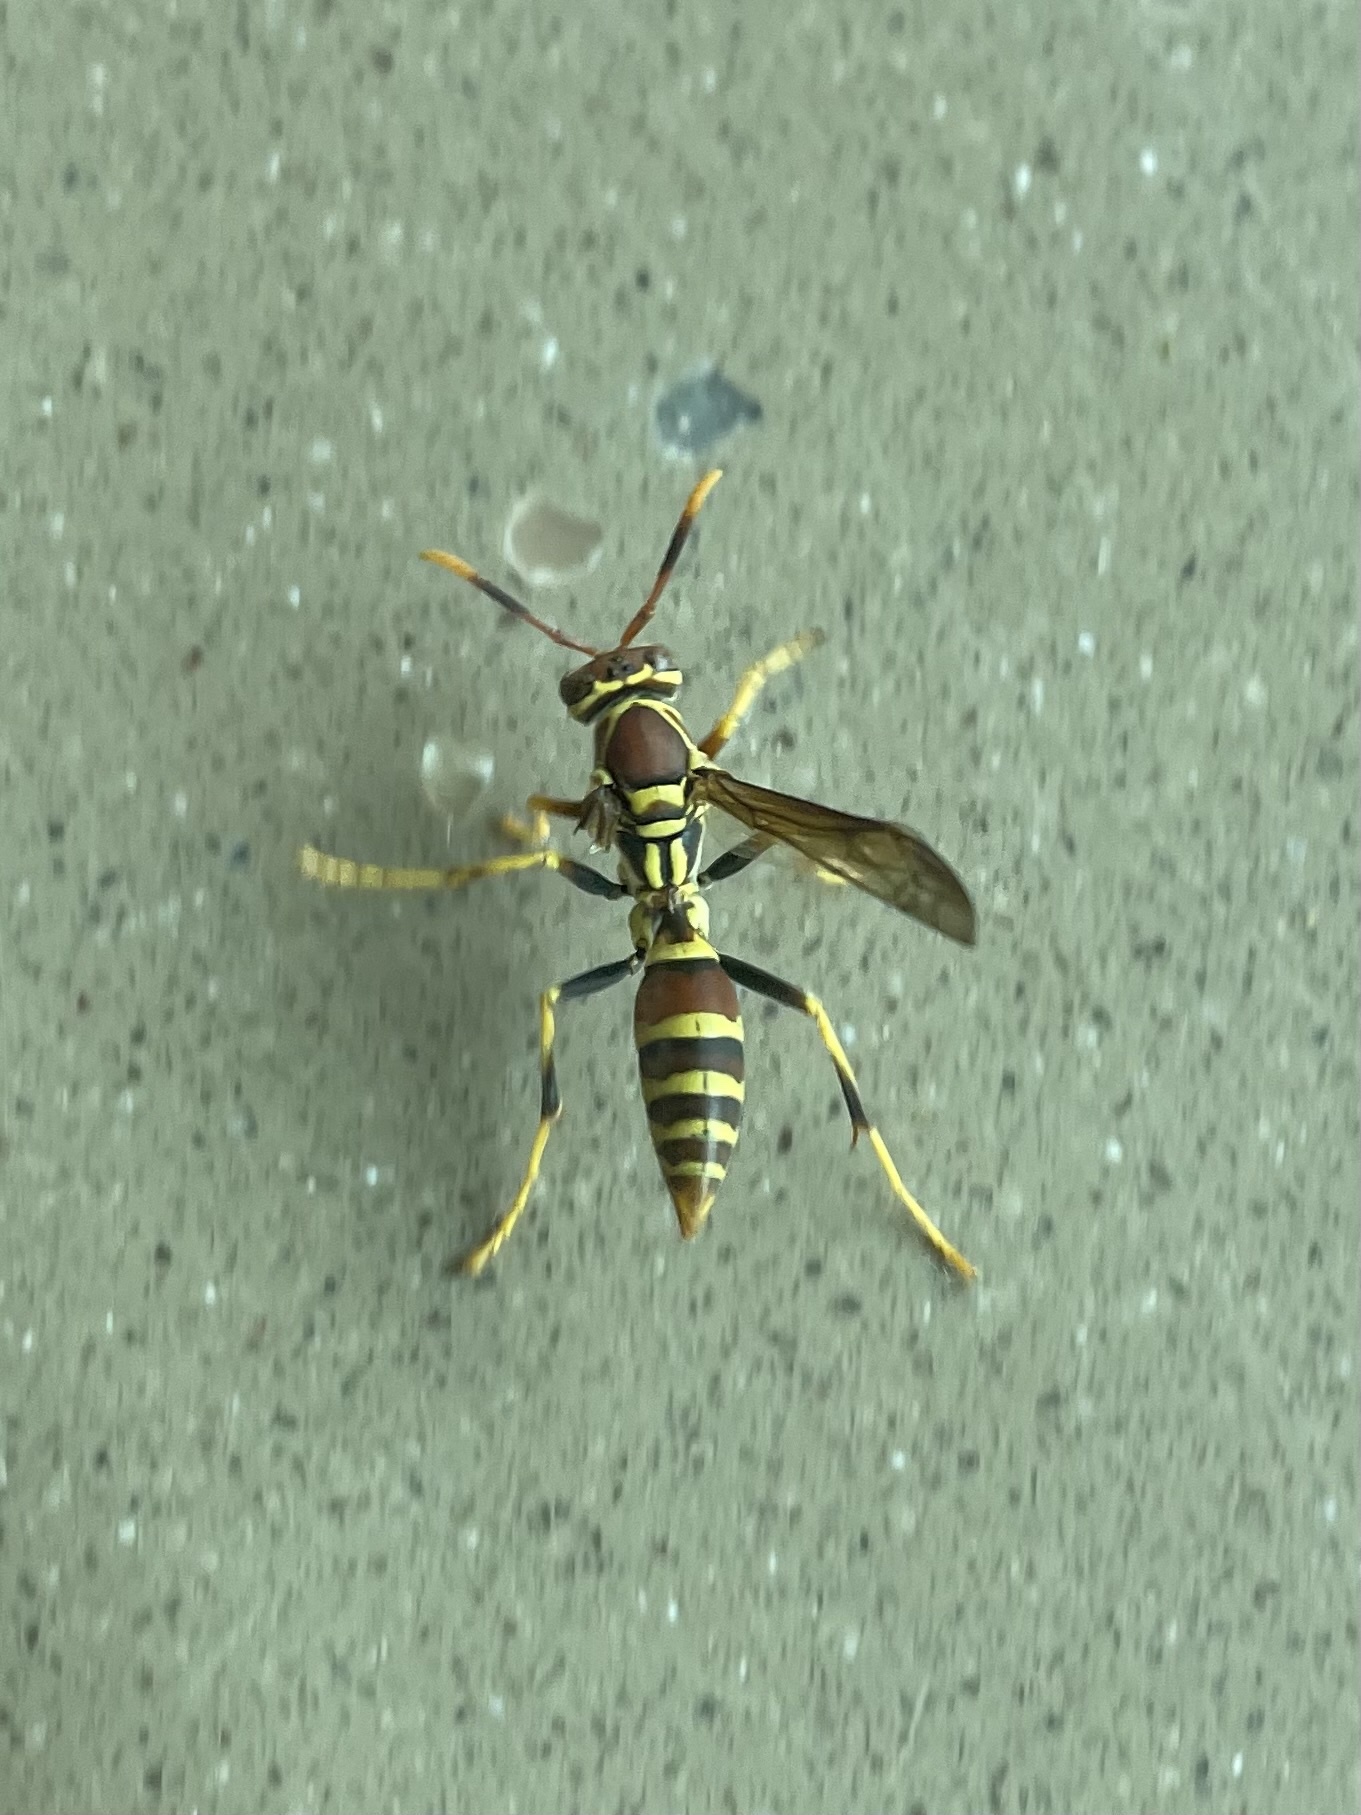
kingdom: Animalia
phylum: Arthropoda
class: Insecta
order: Hymenoptera
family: Eumenidae
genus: Polistes
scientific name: Polistes exclamans
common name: Paper wasp
